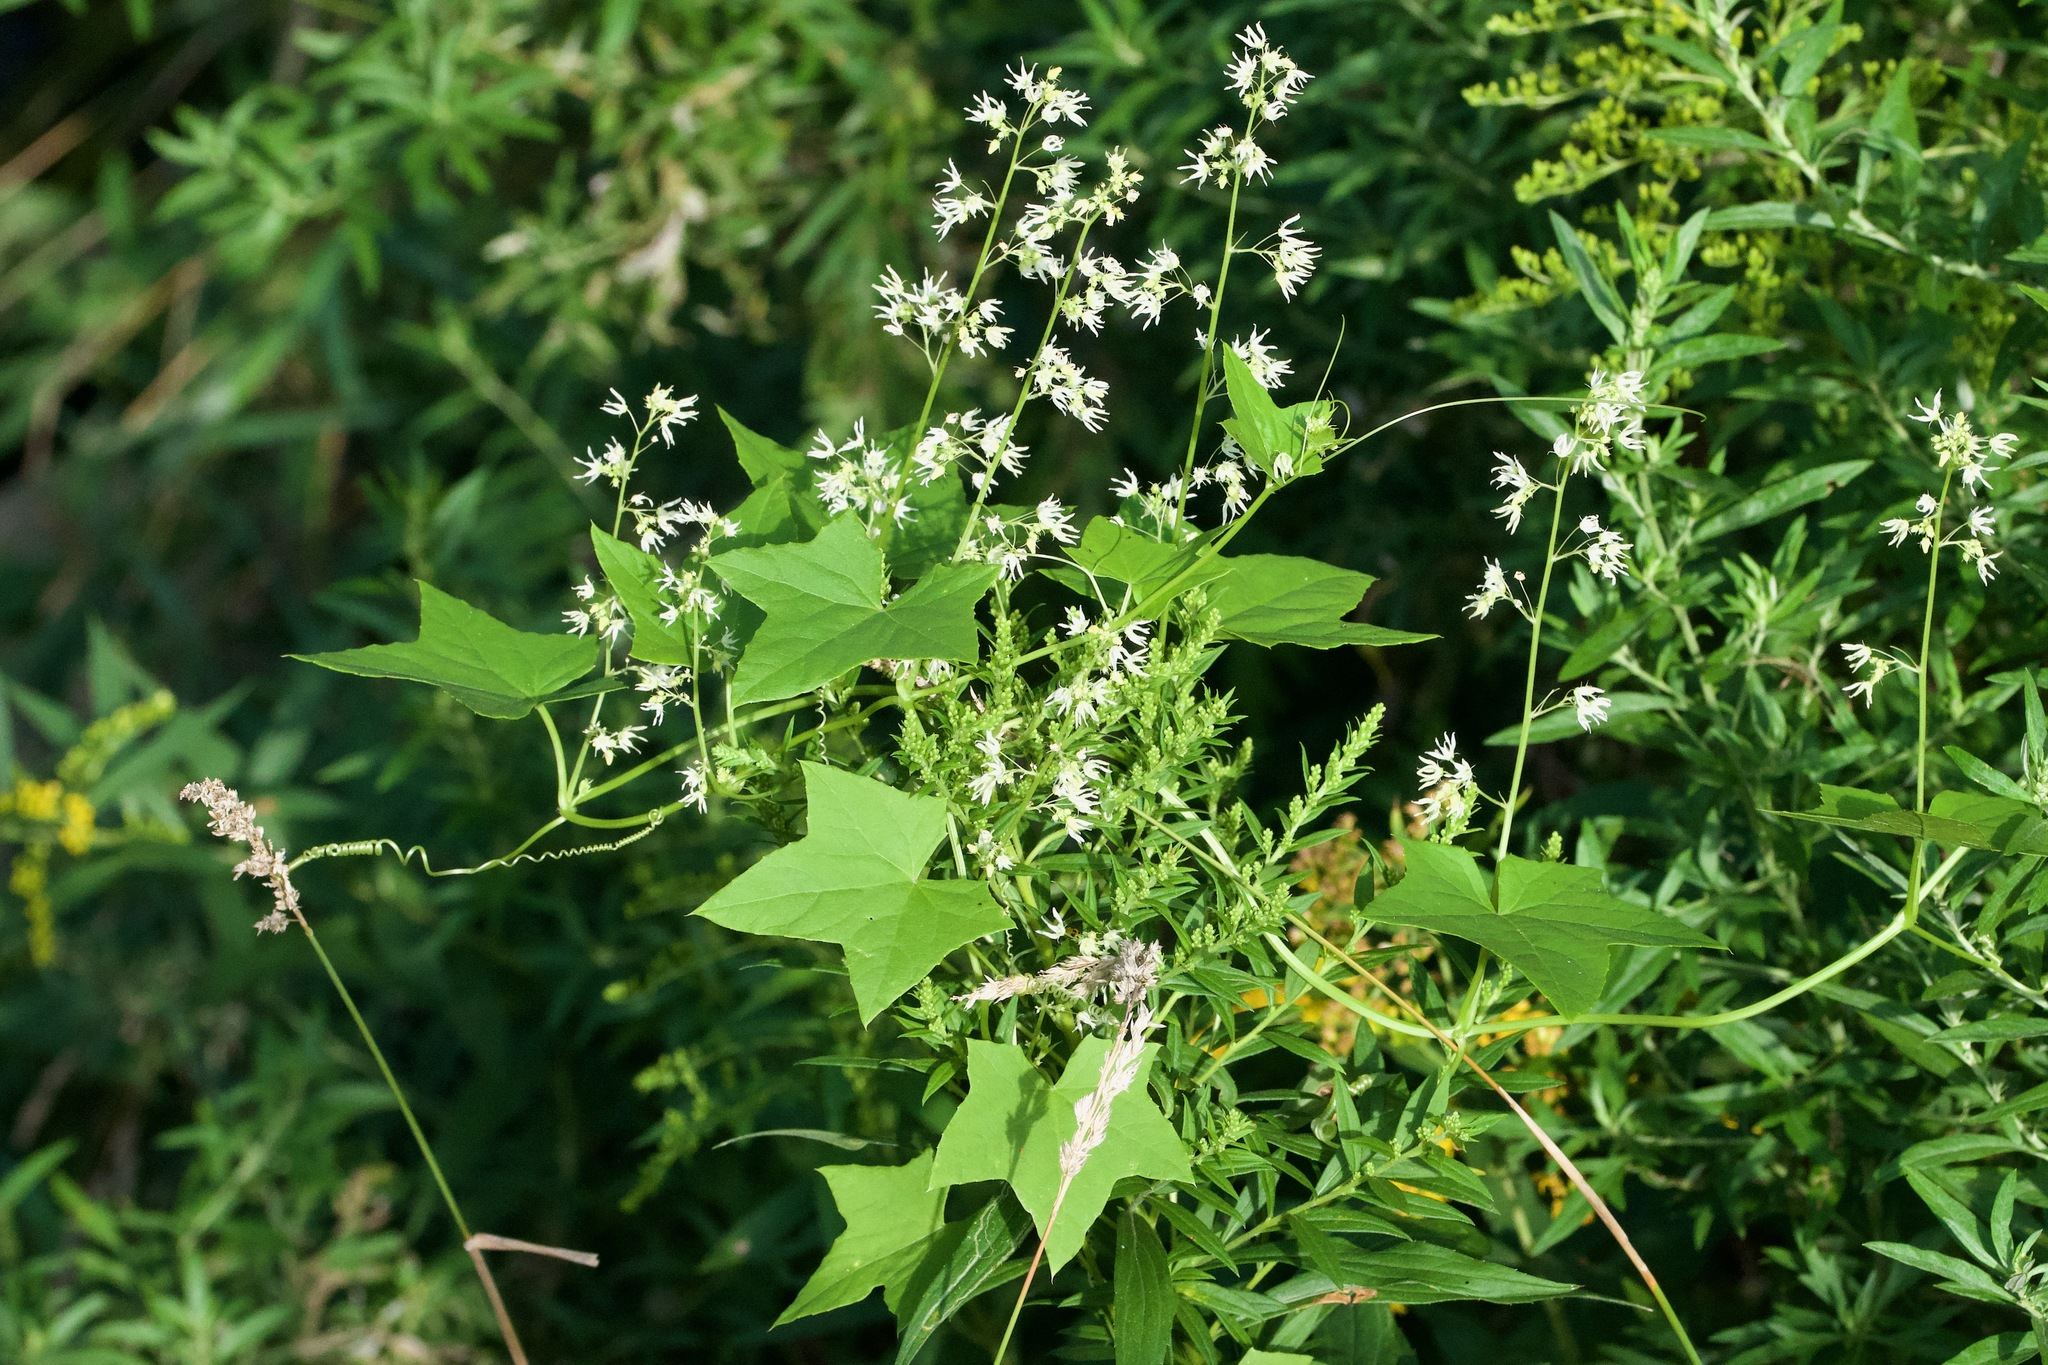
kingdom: Plantae
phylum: Tracheophyta
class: Magnoliopsida
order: Cucurbitales
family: Cucurbitaceae
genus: Echinocystis
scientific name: Echinocystis lobata
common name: Wild cucumber
